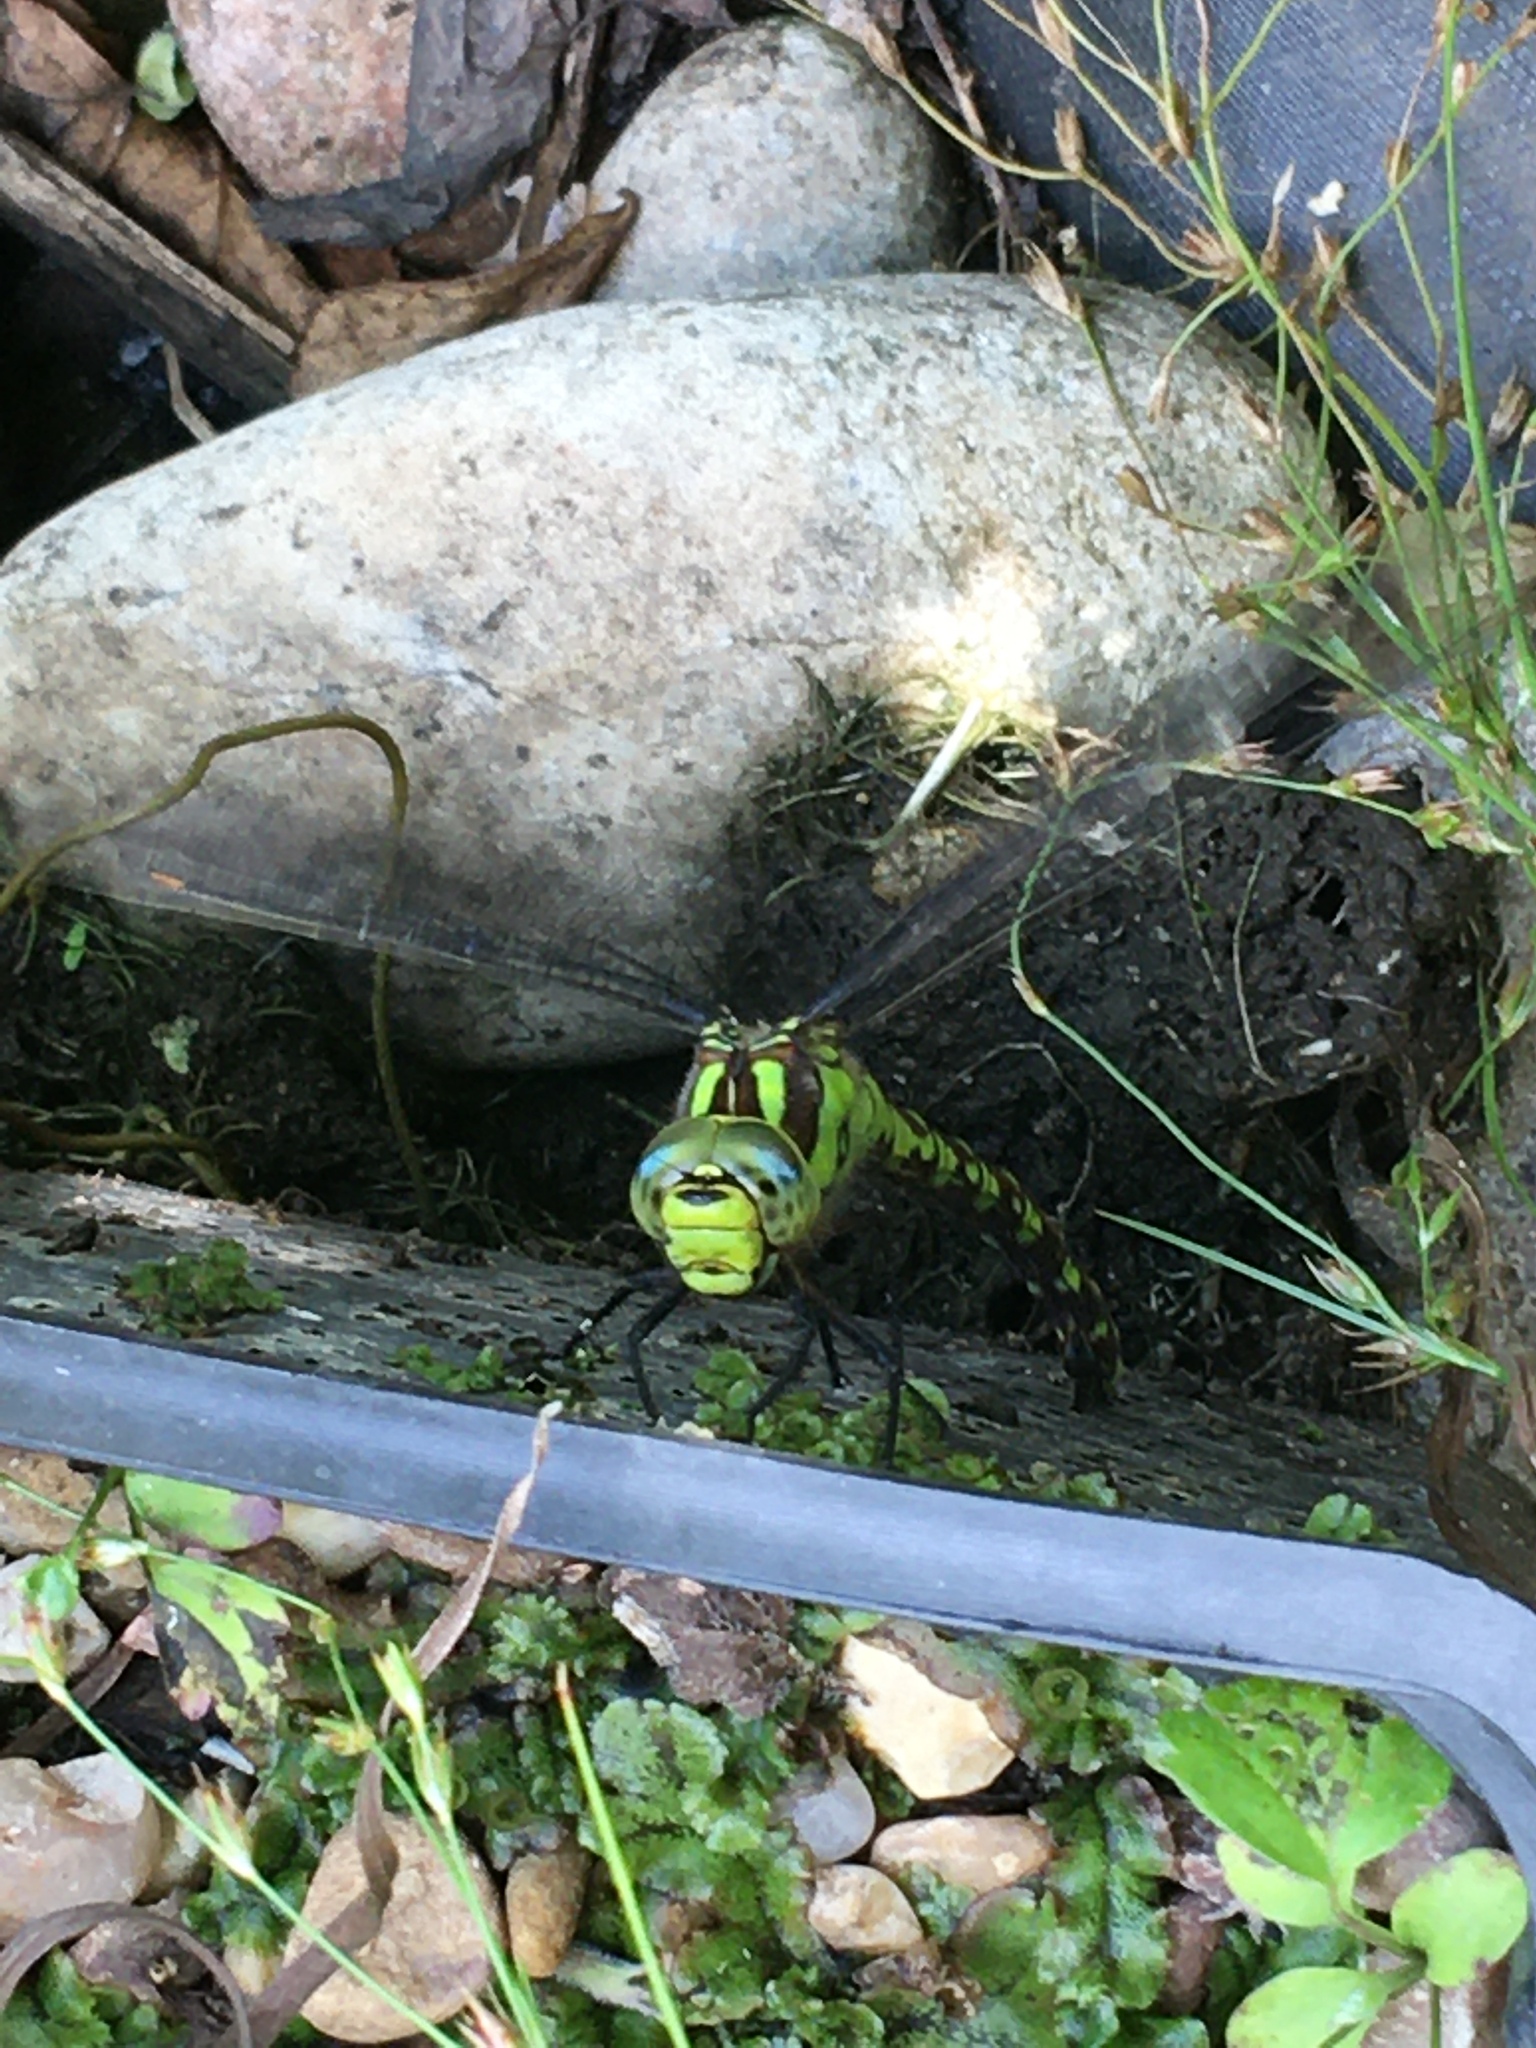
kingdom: Animalia
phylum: Arthropoda
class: Insecta
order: Odonata
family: Aeshnidae
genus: Aeshna
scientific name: Aeshna cyanea
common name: Southern hawker
